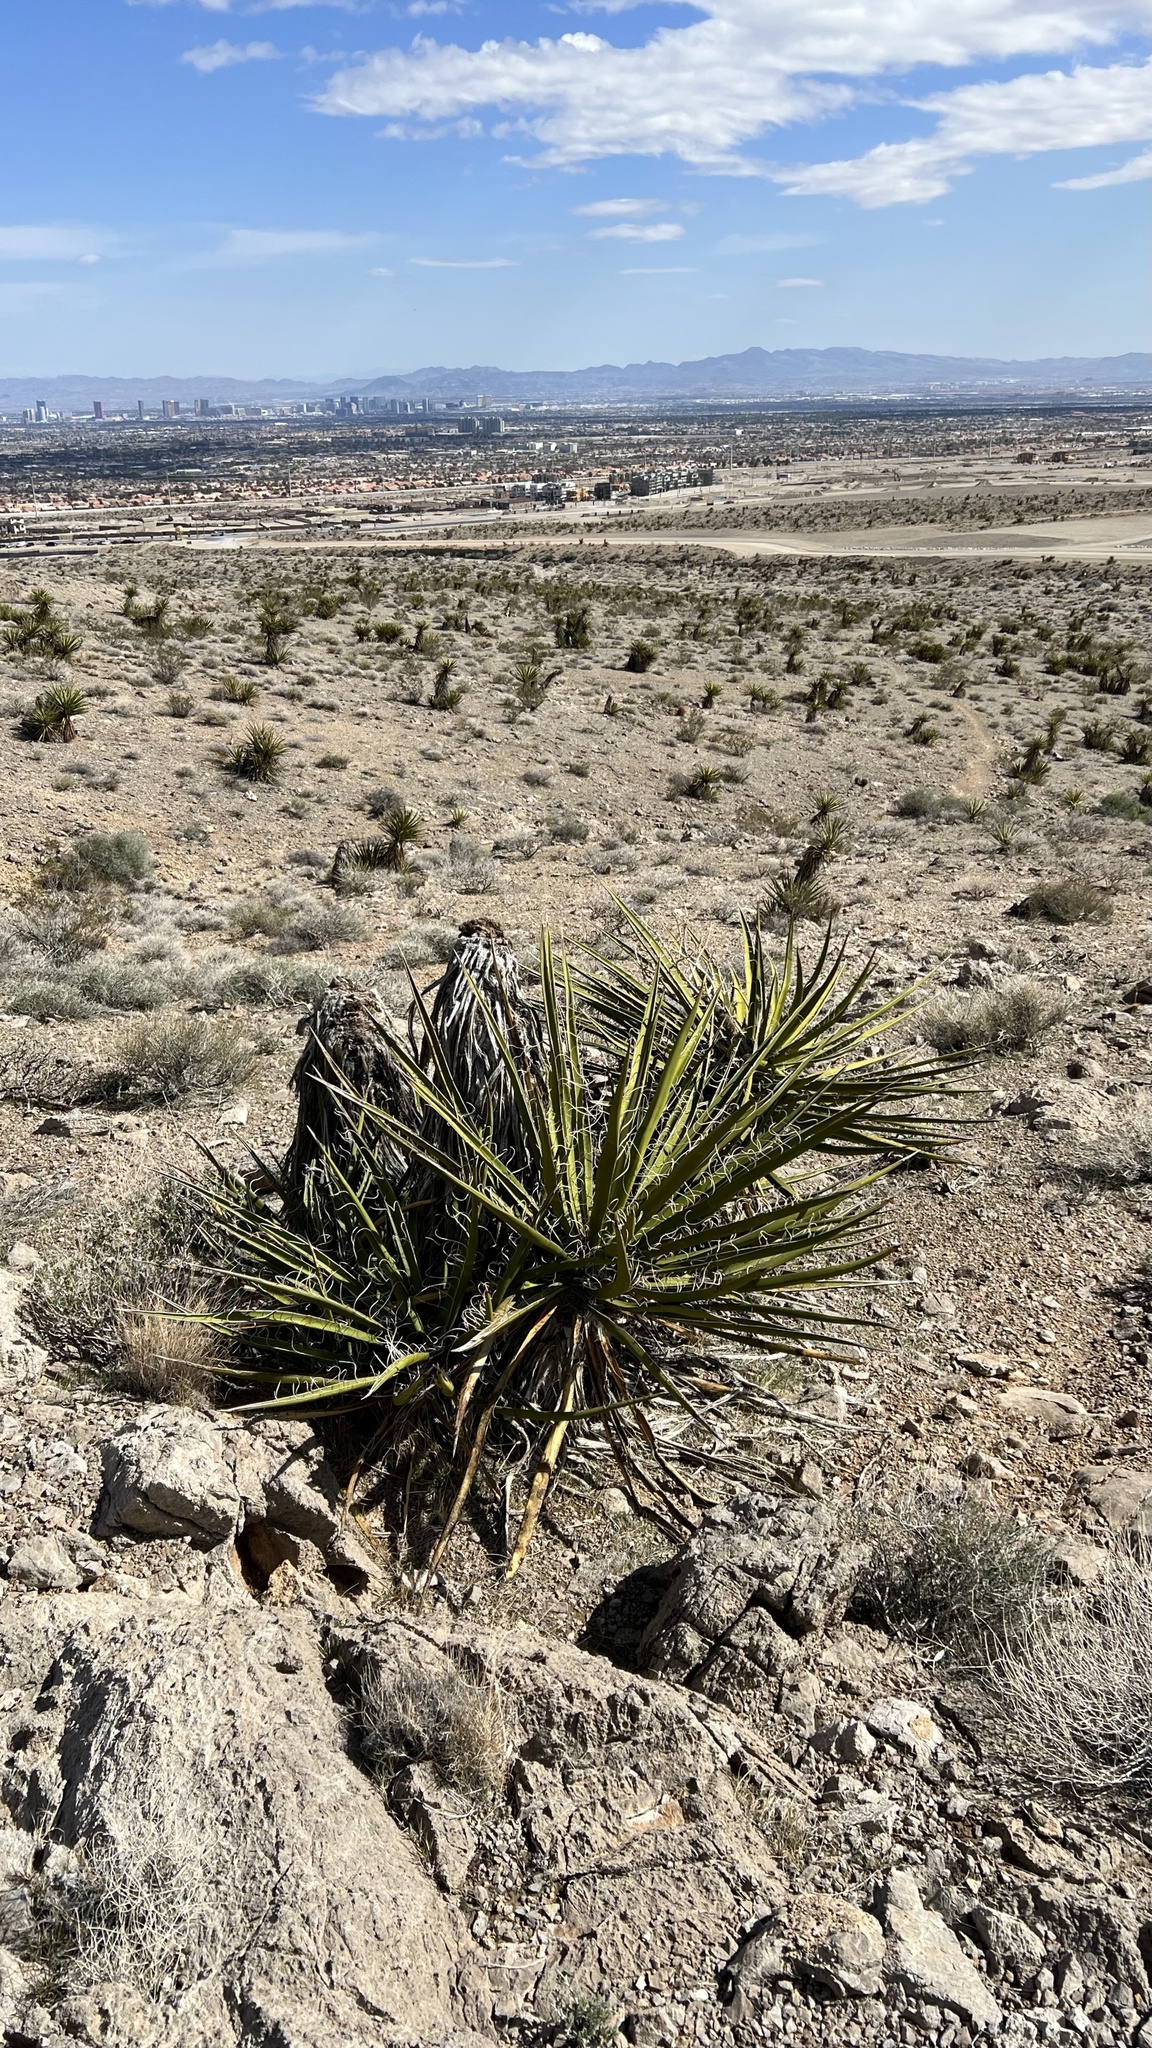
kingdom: Plantae
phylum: Tracheophyta
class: Liliopsida
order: Asparagales
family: Asparagaceae
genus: Yucca
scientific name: Yucca schidigera
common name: Mojave yucca
